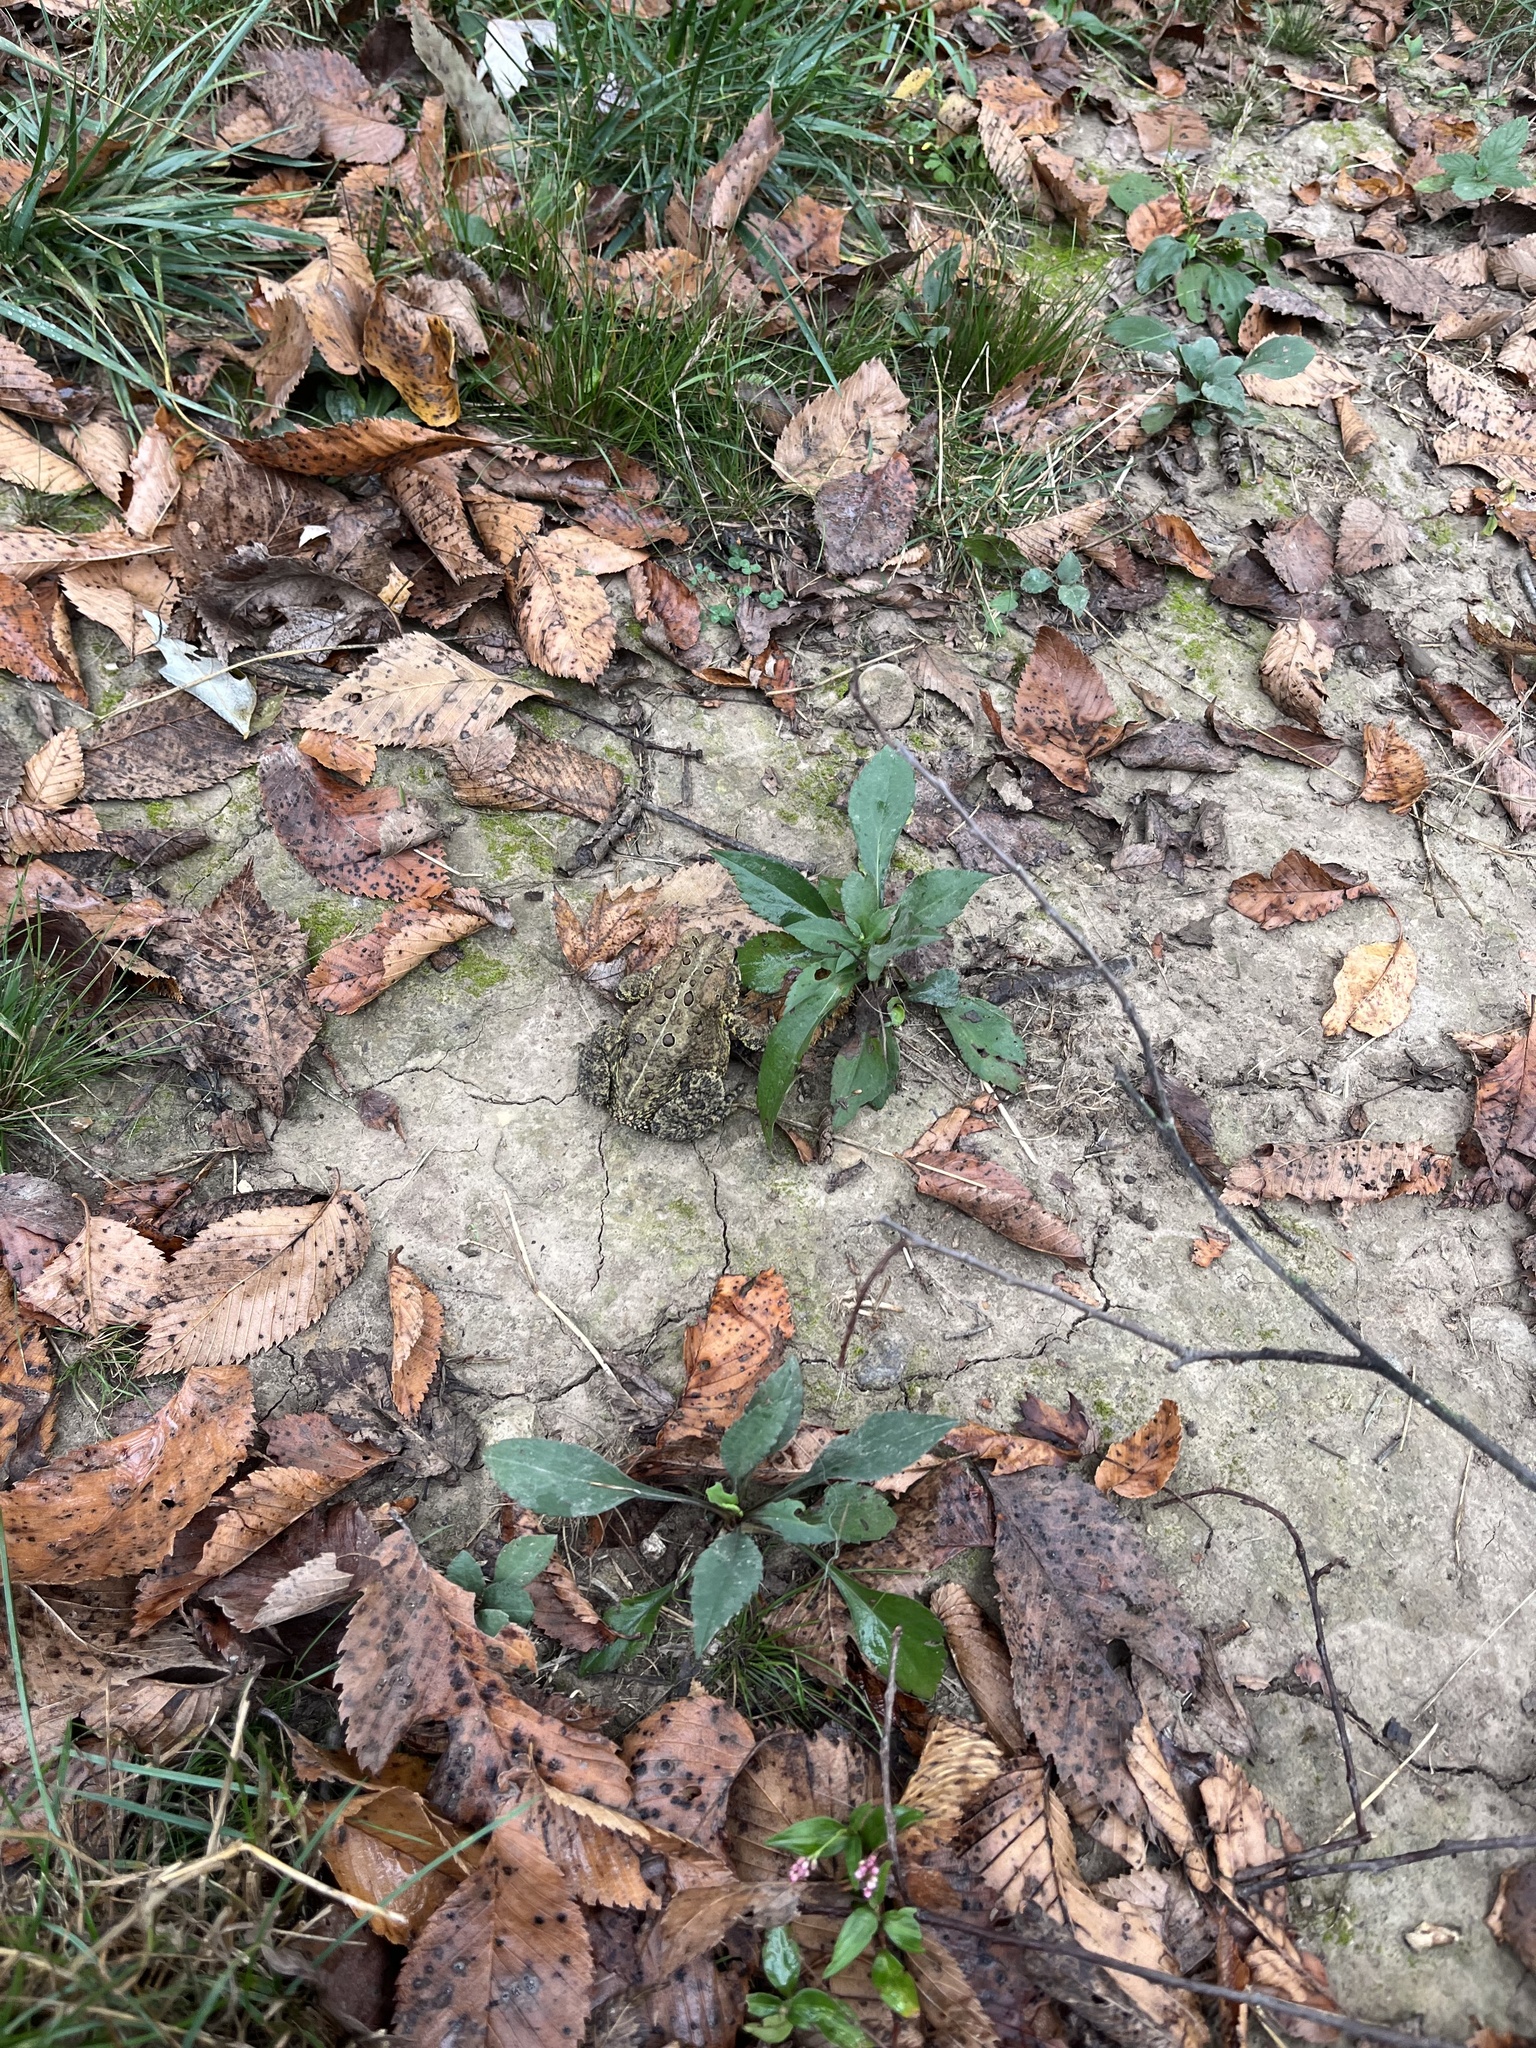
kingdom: Animalia
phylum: Chordata
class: Amphibia
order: Anura
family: Bufonidae
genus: Anaxyrus
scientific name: Anaxyrus americanus
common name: American toad
